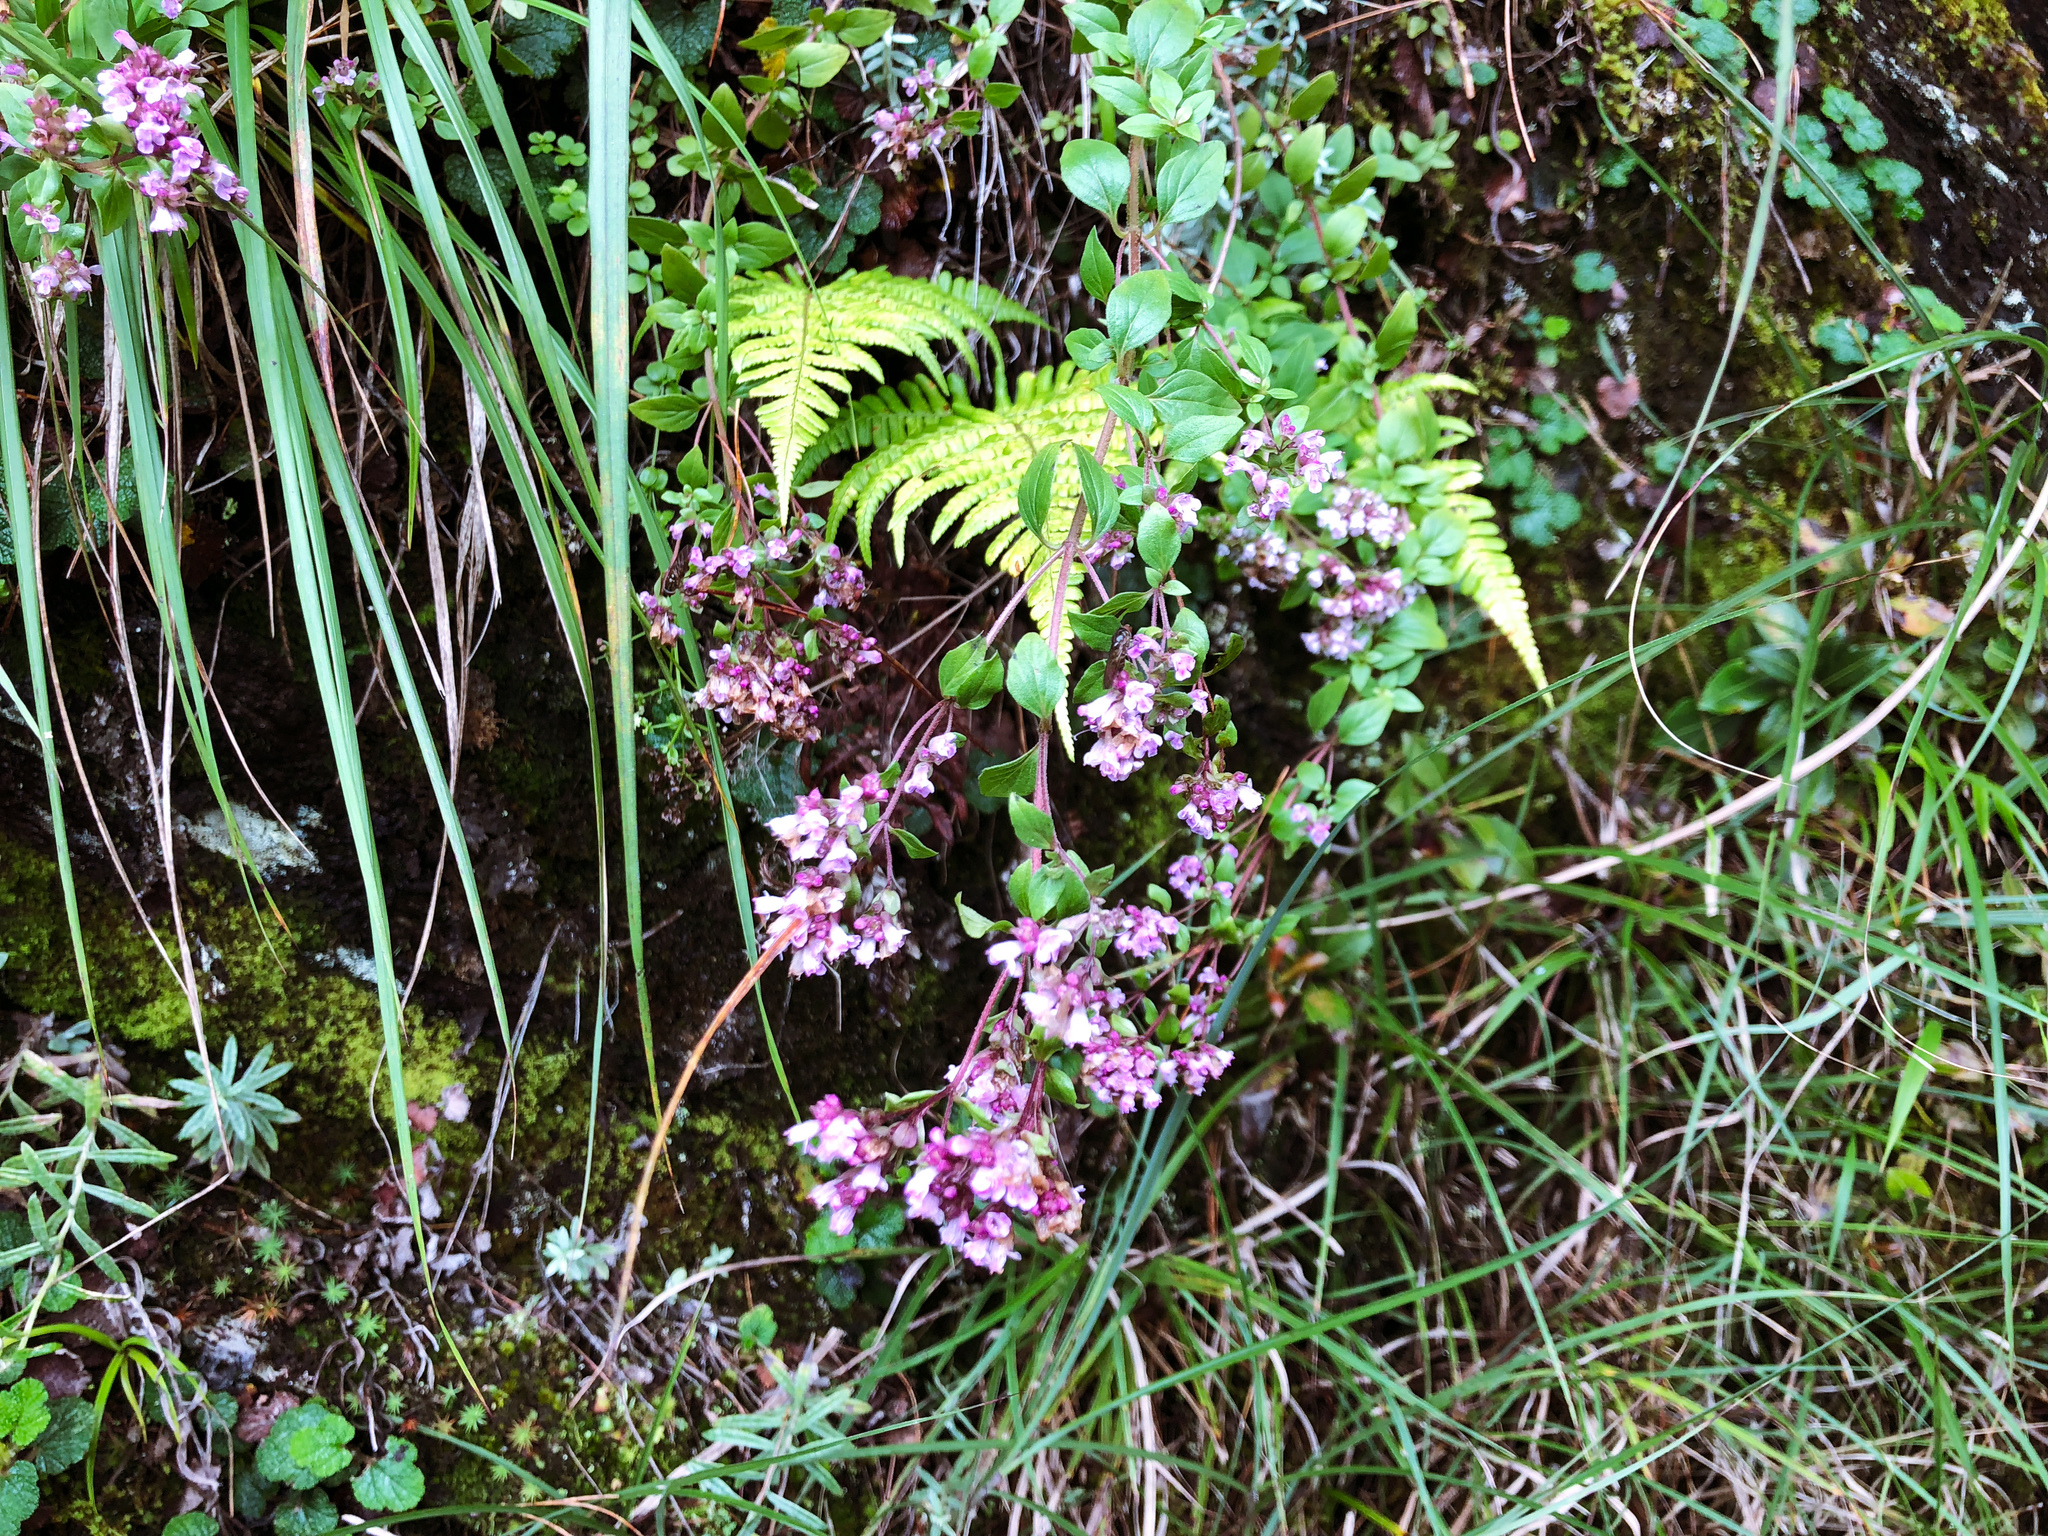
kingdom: Plantae
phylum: Tracheophyta
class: Magnoliopsida
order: Lamiales
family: Lamiaceae
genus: Origanum
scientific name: Origanum vulgare
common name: Wild marjoram
